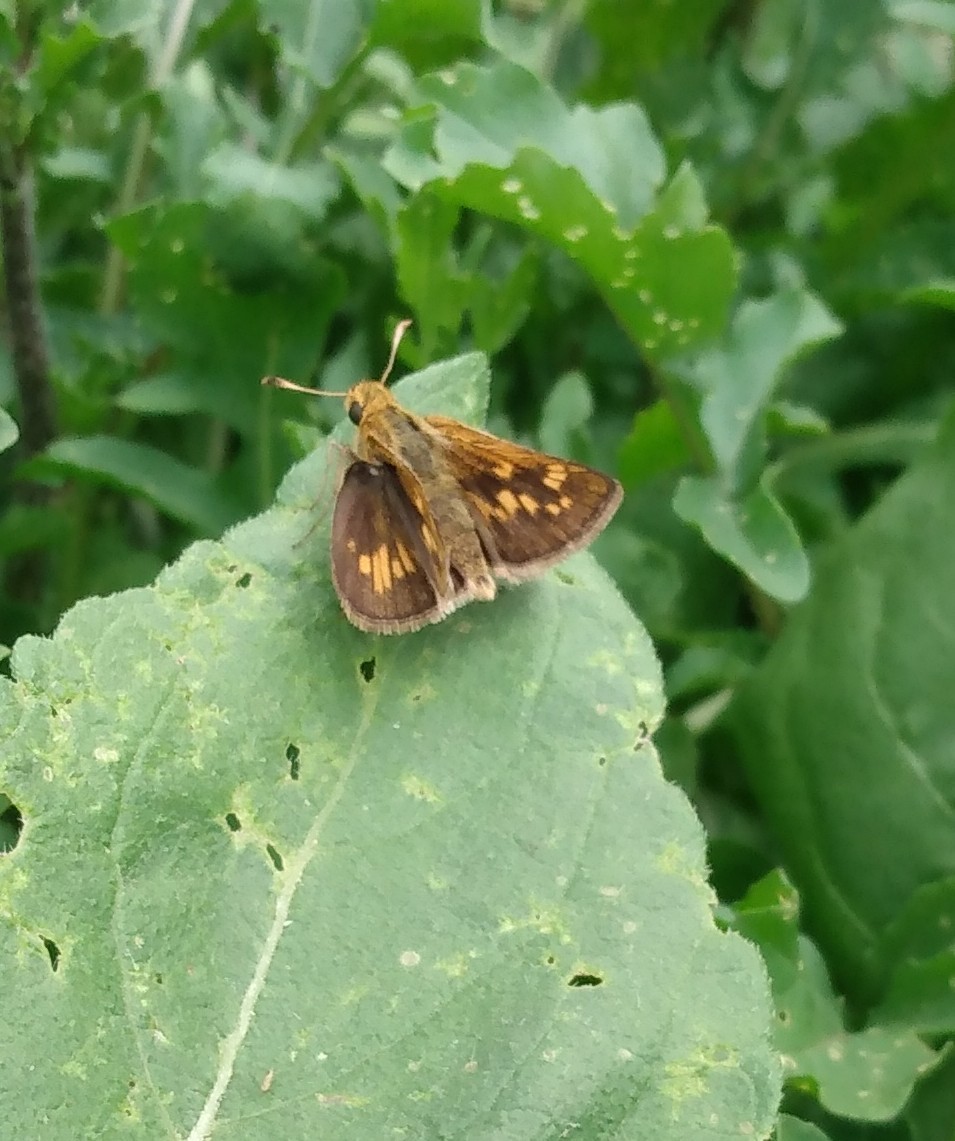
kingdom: Animalia
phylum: Arthropoda
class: Insecta
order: Lepidoptera
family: Hesperiidae
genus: Polites
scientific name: Polites coras
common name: Peck's skipper
